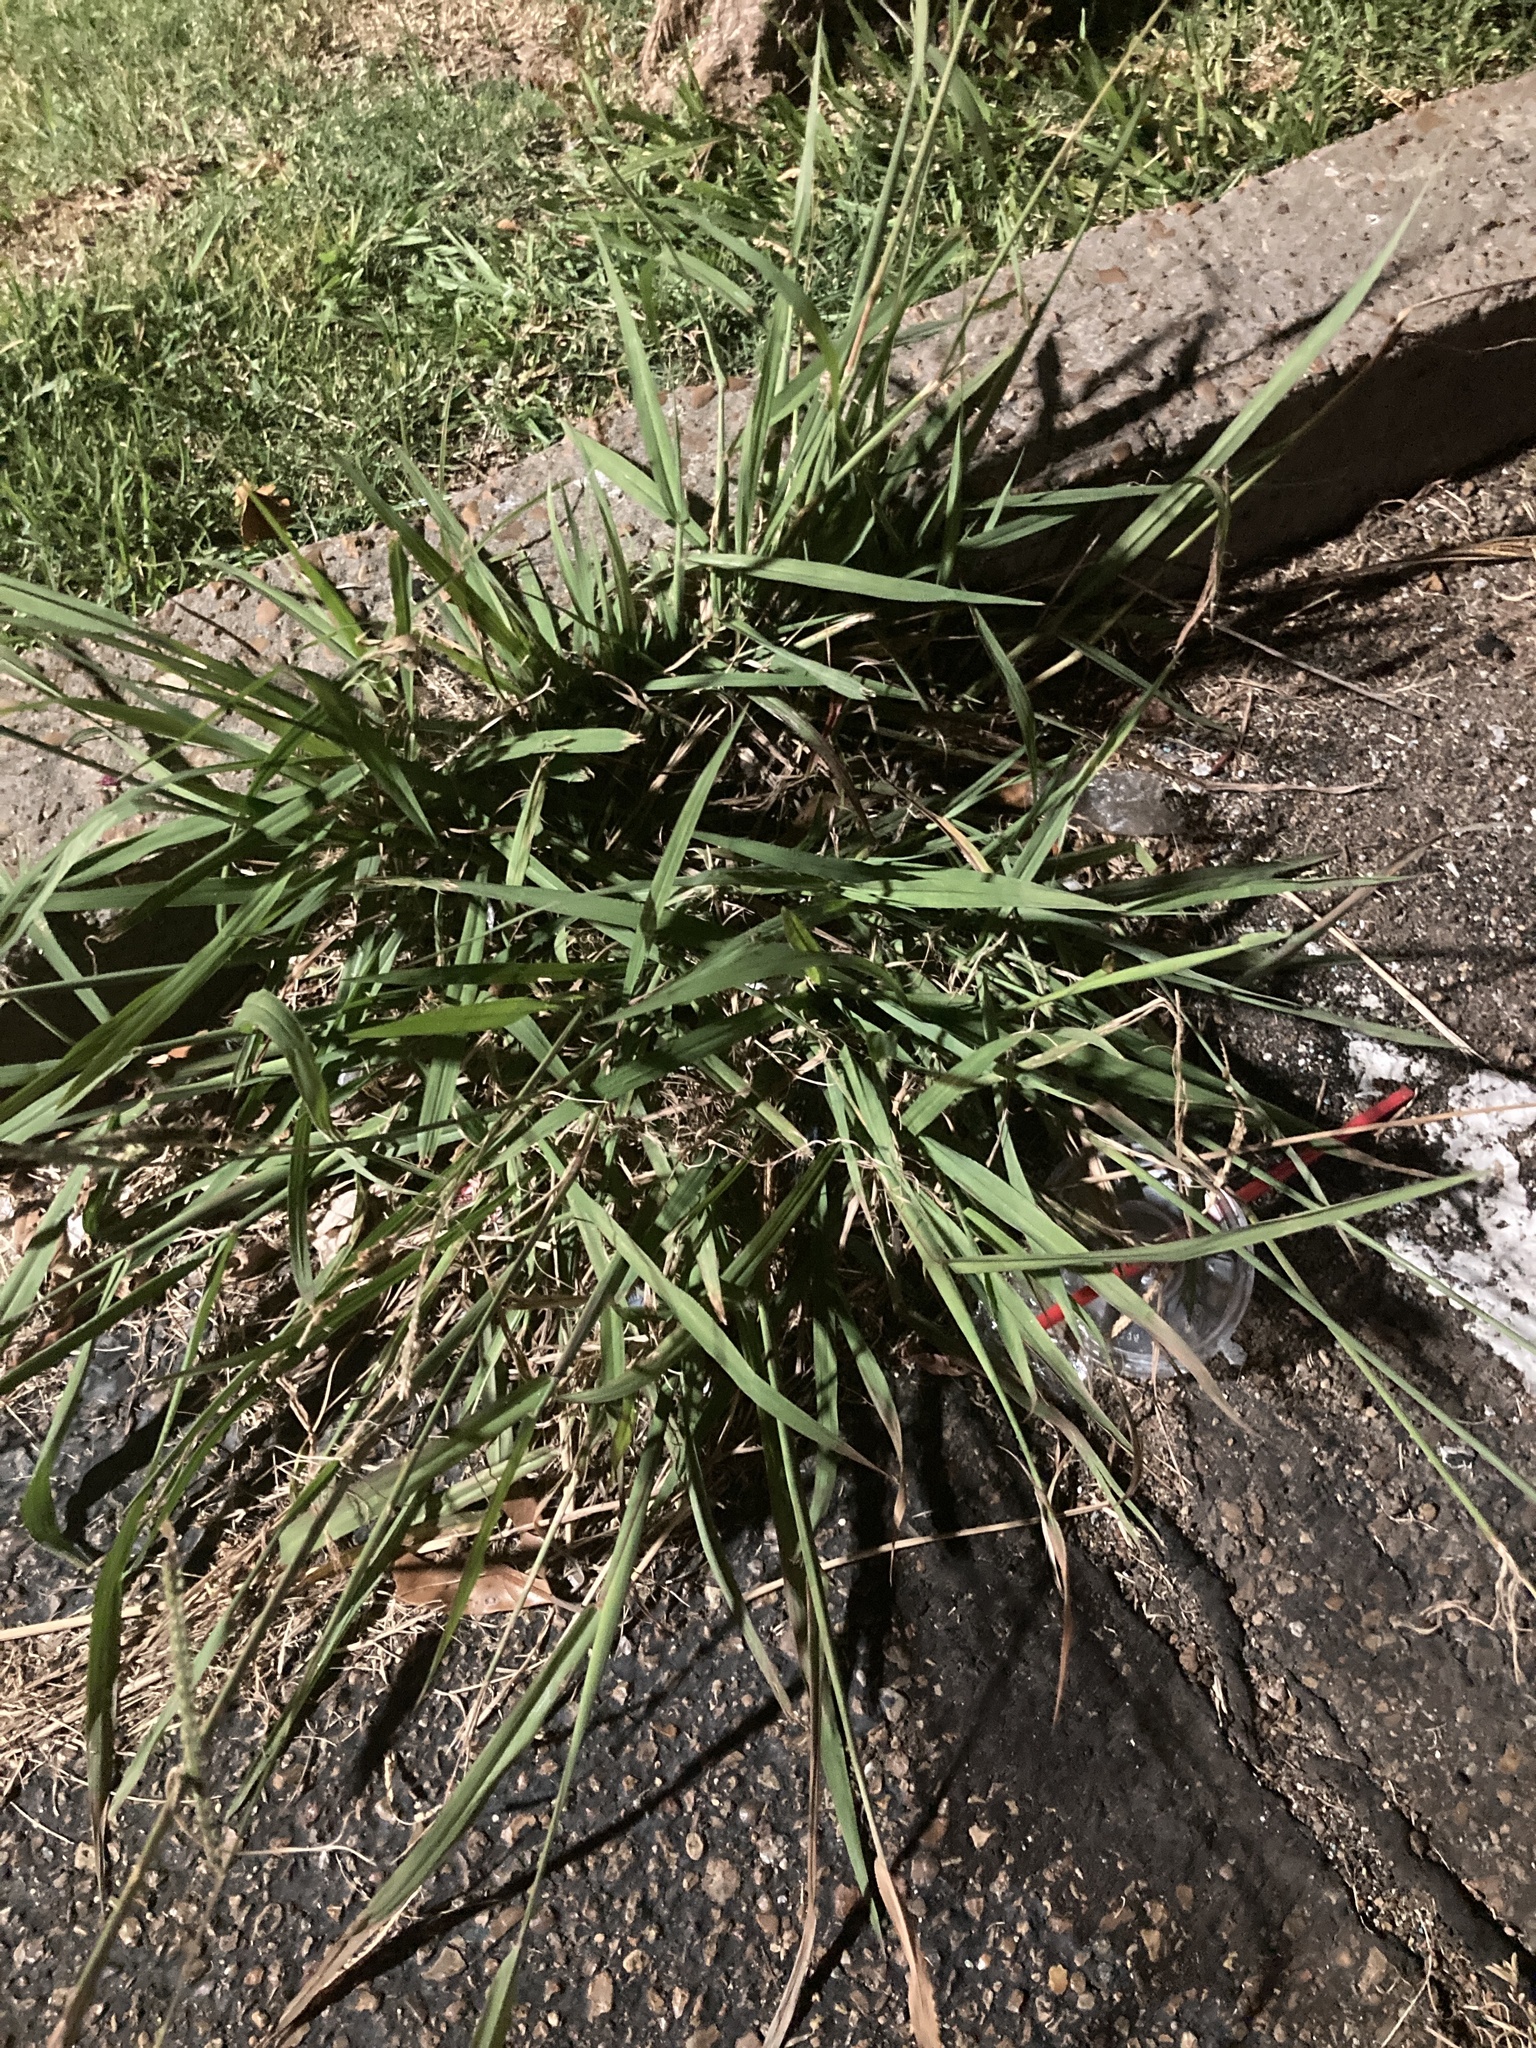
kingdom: Plantae
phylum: Tracheophyta
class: Liliopsida
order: Poales
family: Poaceae
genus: Paspalum
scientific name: Paspalum dilatatum
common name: Dallisgrass
